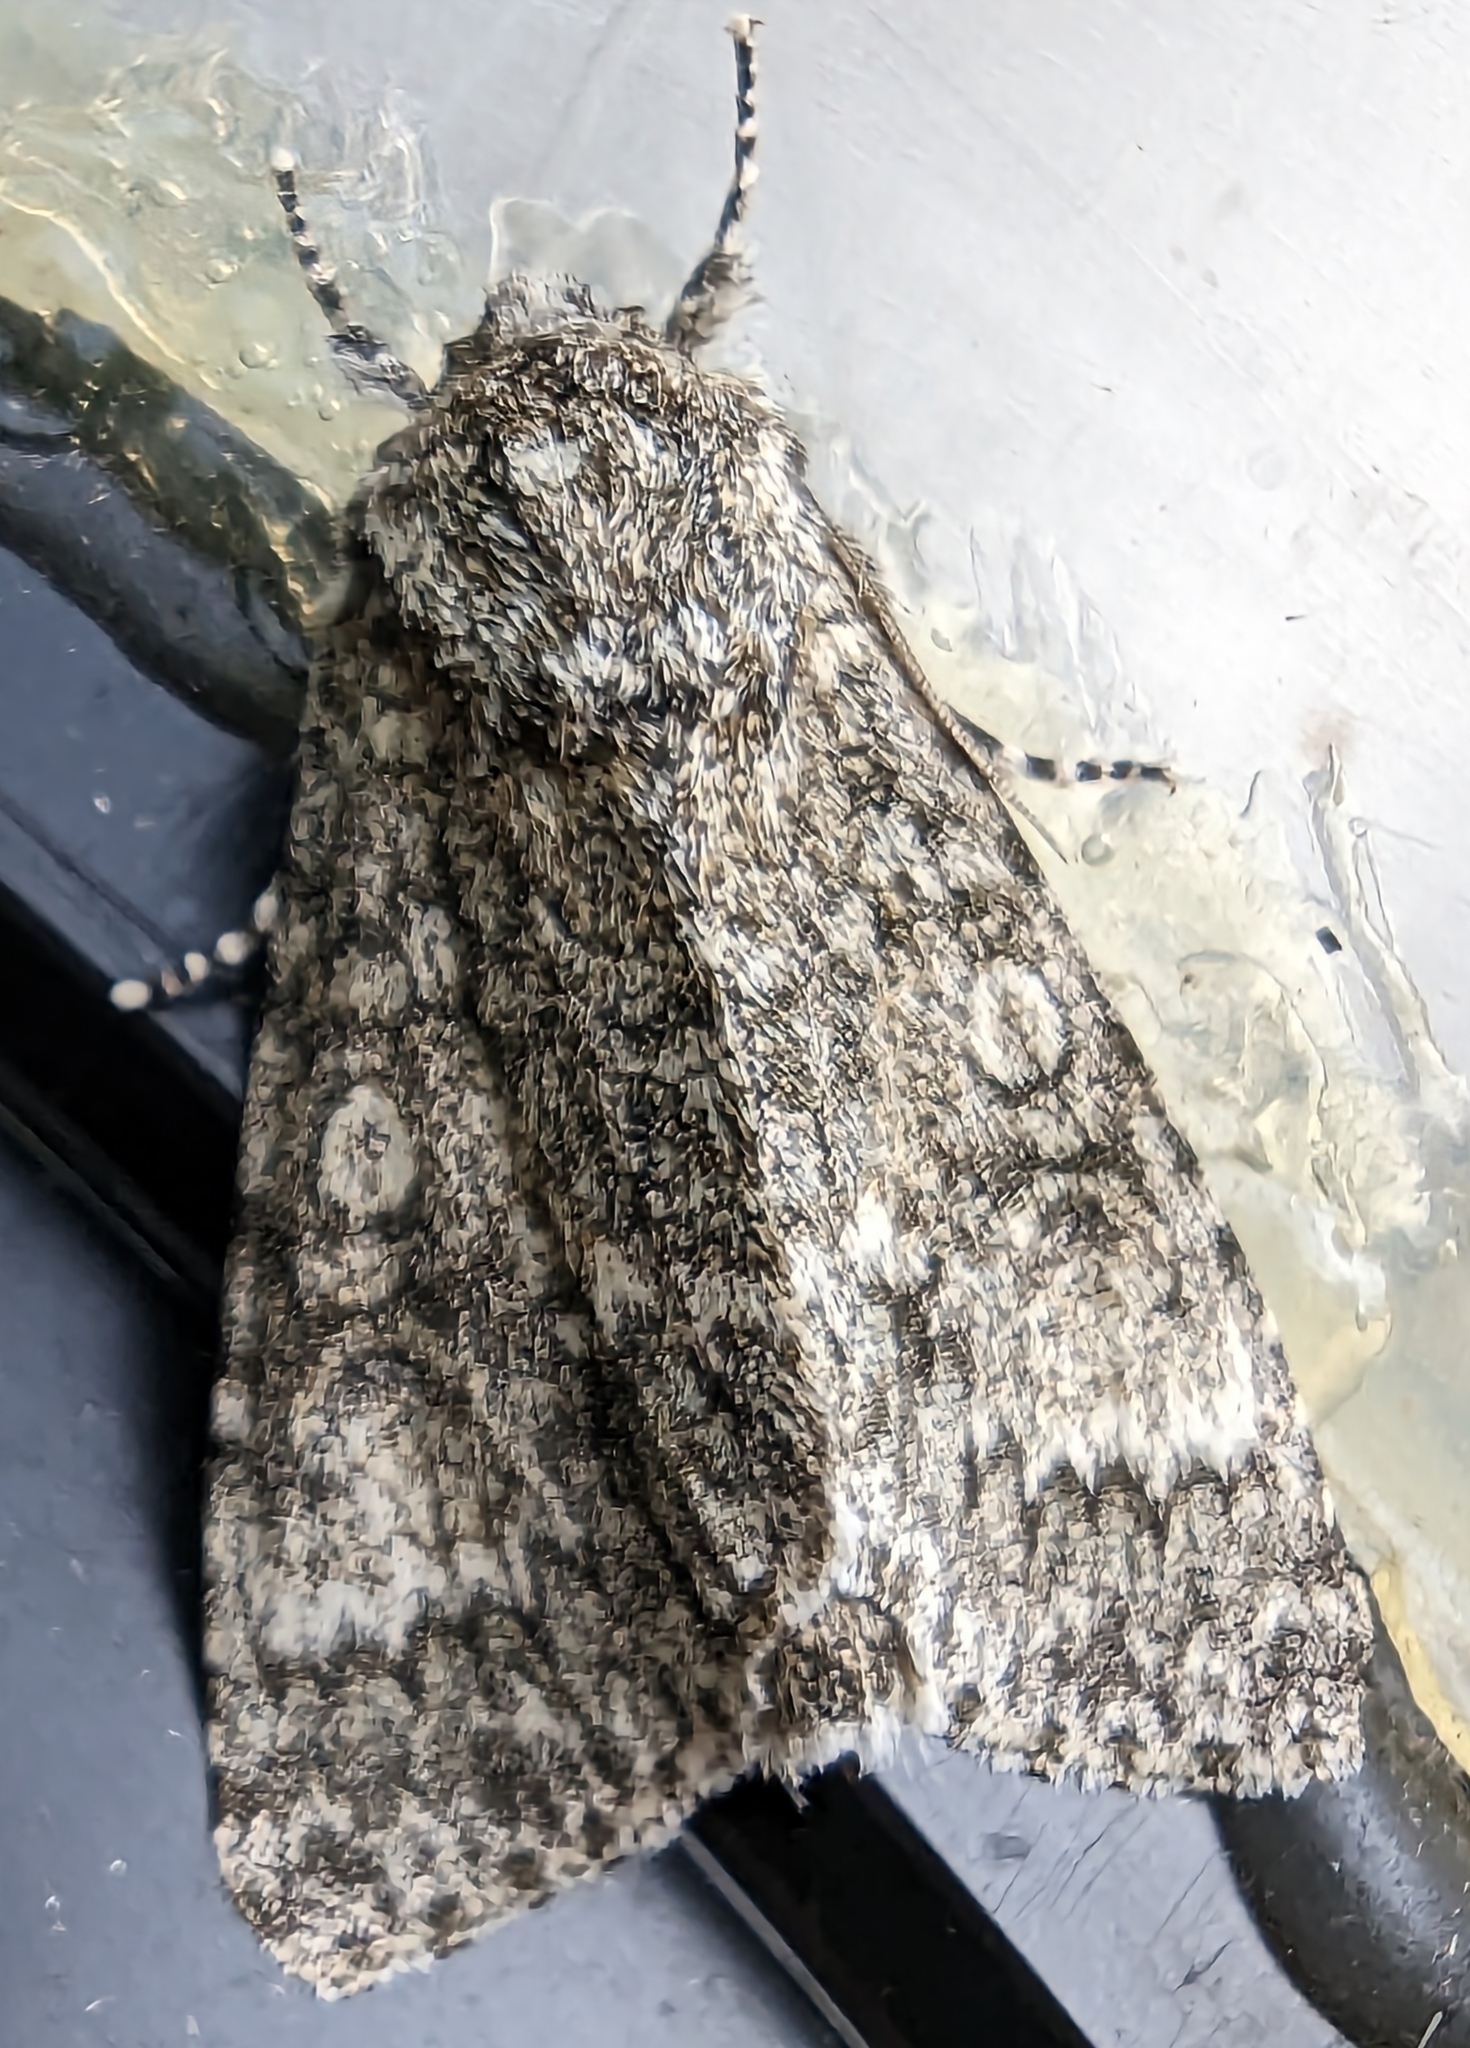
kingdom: Animalia
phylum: Arthropoda
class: Insecta
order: Lepidoptera
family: Noctuidae
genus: Acronicta
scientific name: Acronicta megacephala
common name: Poplar grey
